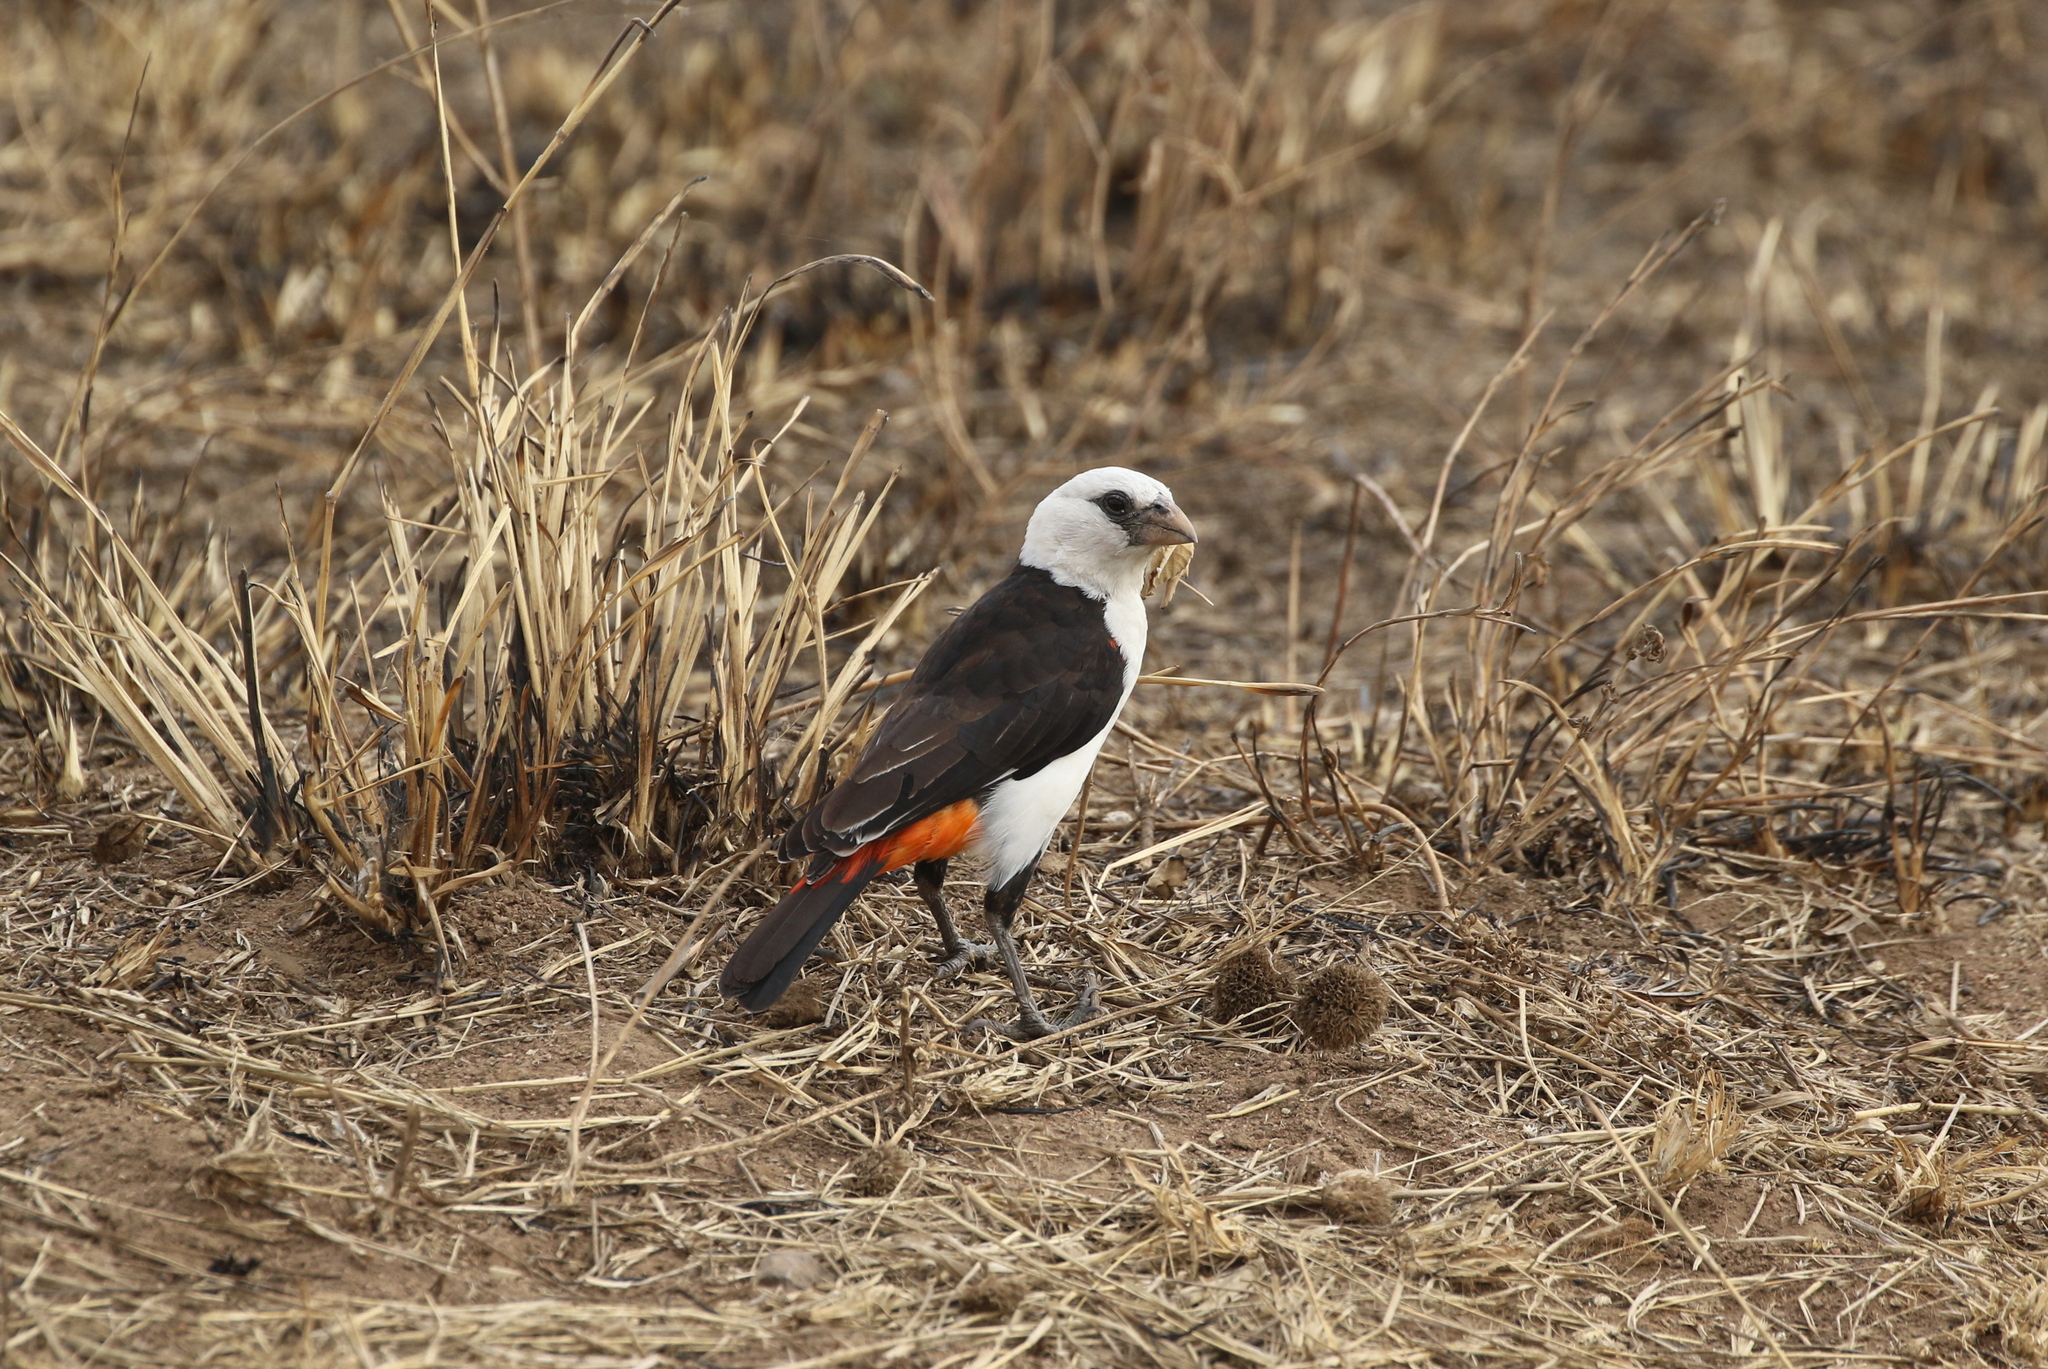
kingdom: Animalia
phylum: Chordata
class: Aves
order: Passeriformes
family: Ploceidae
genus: Dinemellia
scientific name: Dinemellia dinemelli
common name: White-headed buffalo weaver
